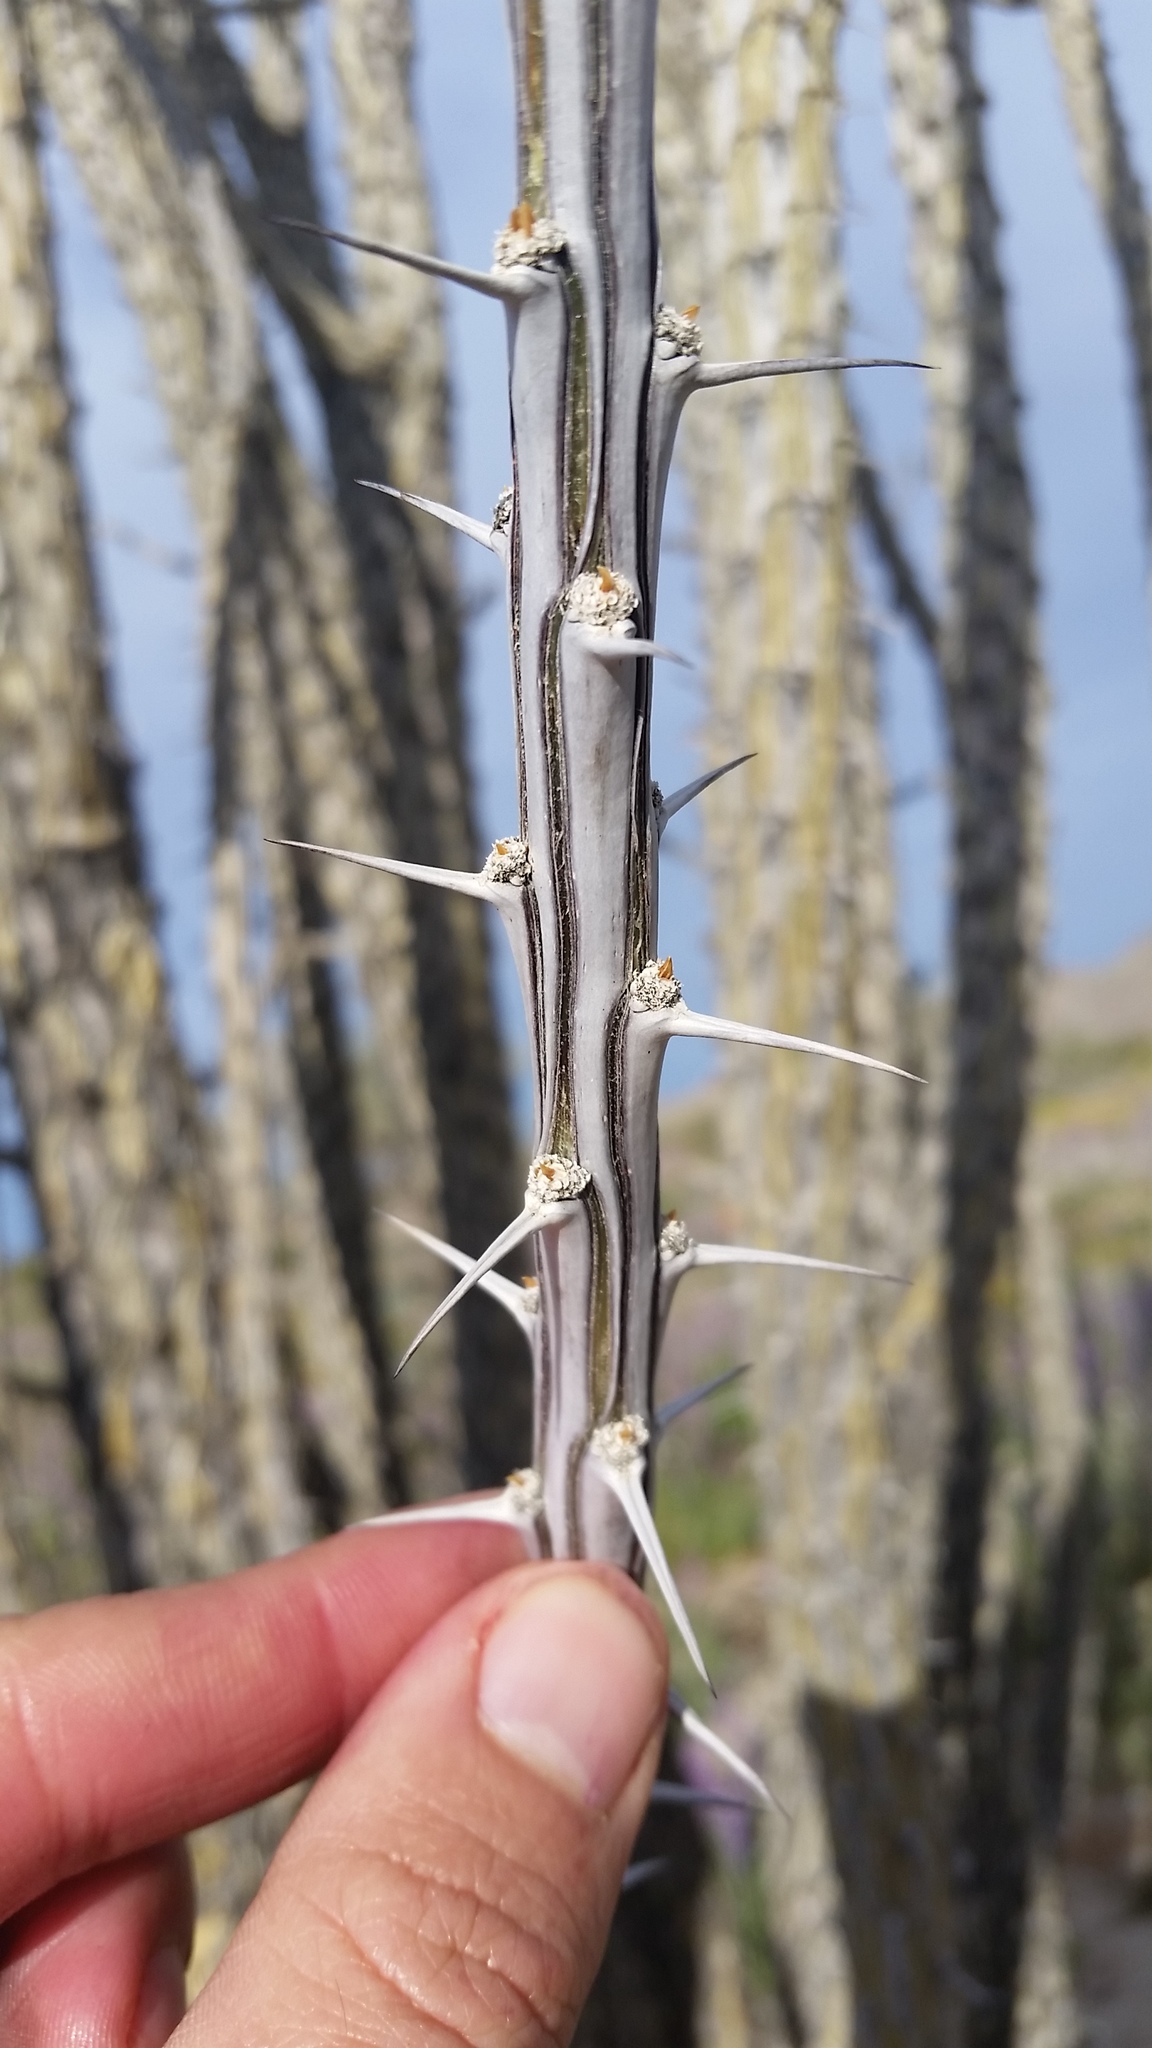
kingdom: Plantae
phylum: Tracheophyta
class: Magnoliopsida
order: Ericales
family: Fouquieriaceae
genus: Fouquieria
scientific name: Fouquieria splendens
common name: Vine-cactus
